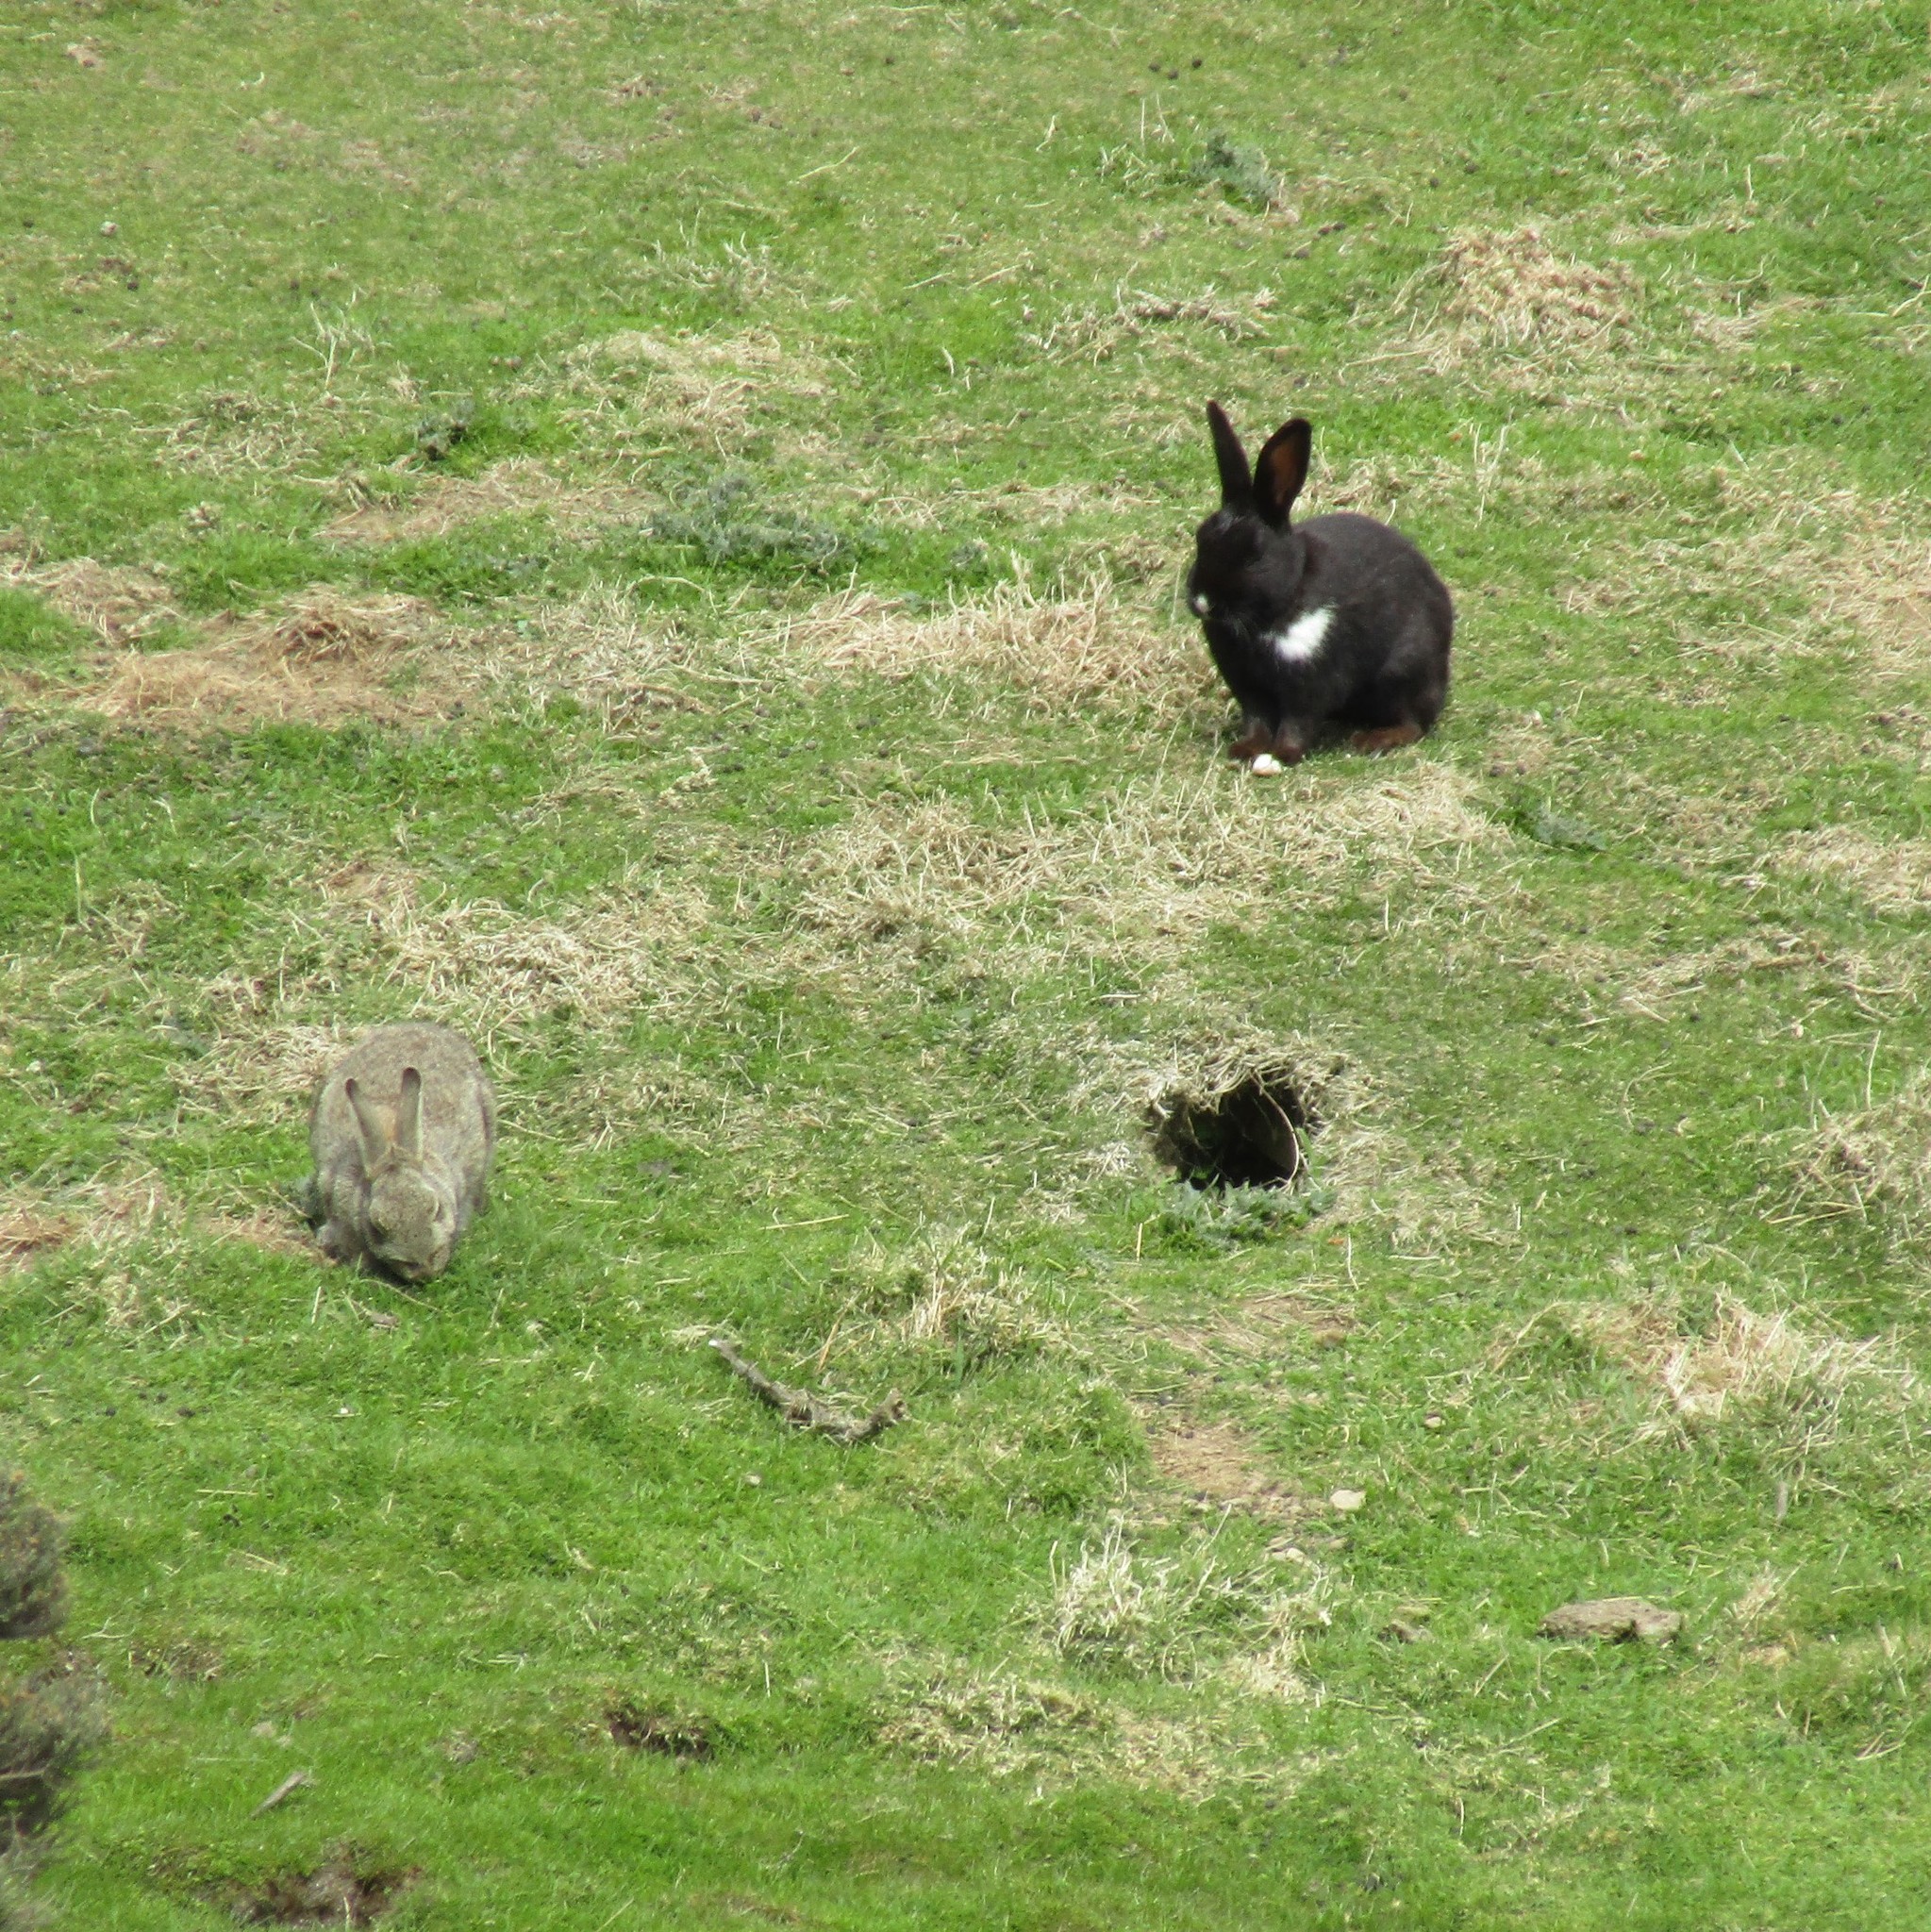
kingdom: Animalia
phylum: Chordata
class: Mammalia
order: Lagomorpha
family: Leporidae
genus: Oryctolagus
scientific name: Oryctolagus cuniculus
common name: European rabbit
